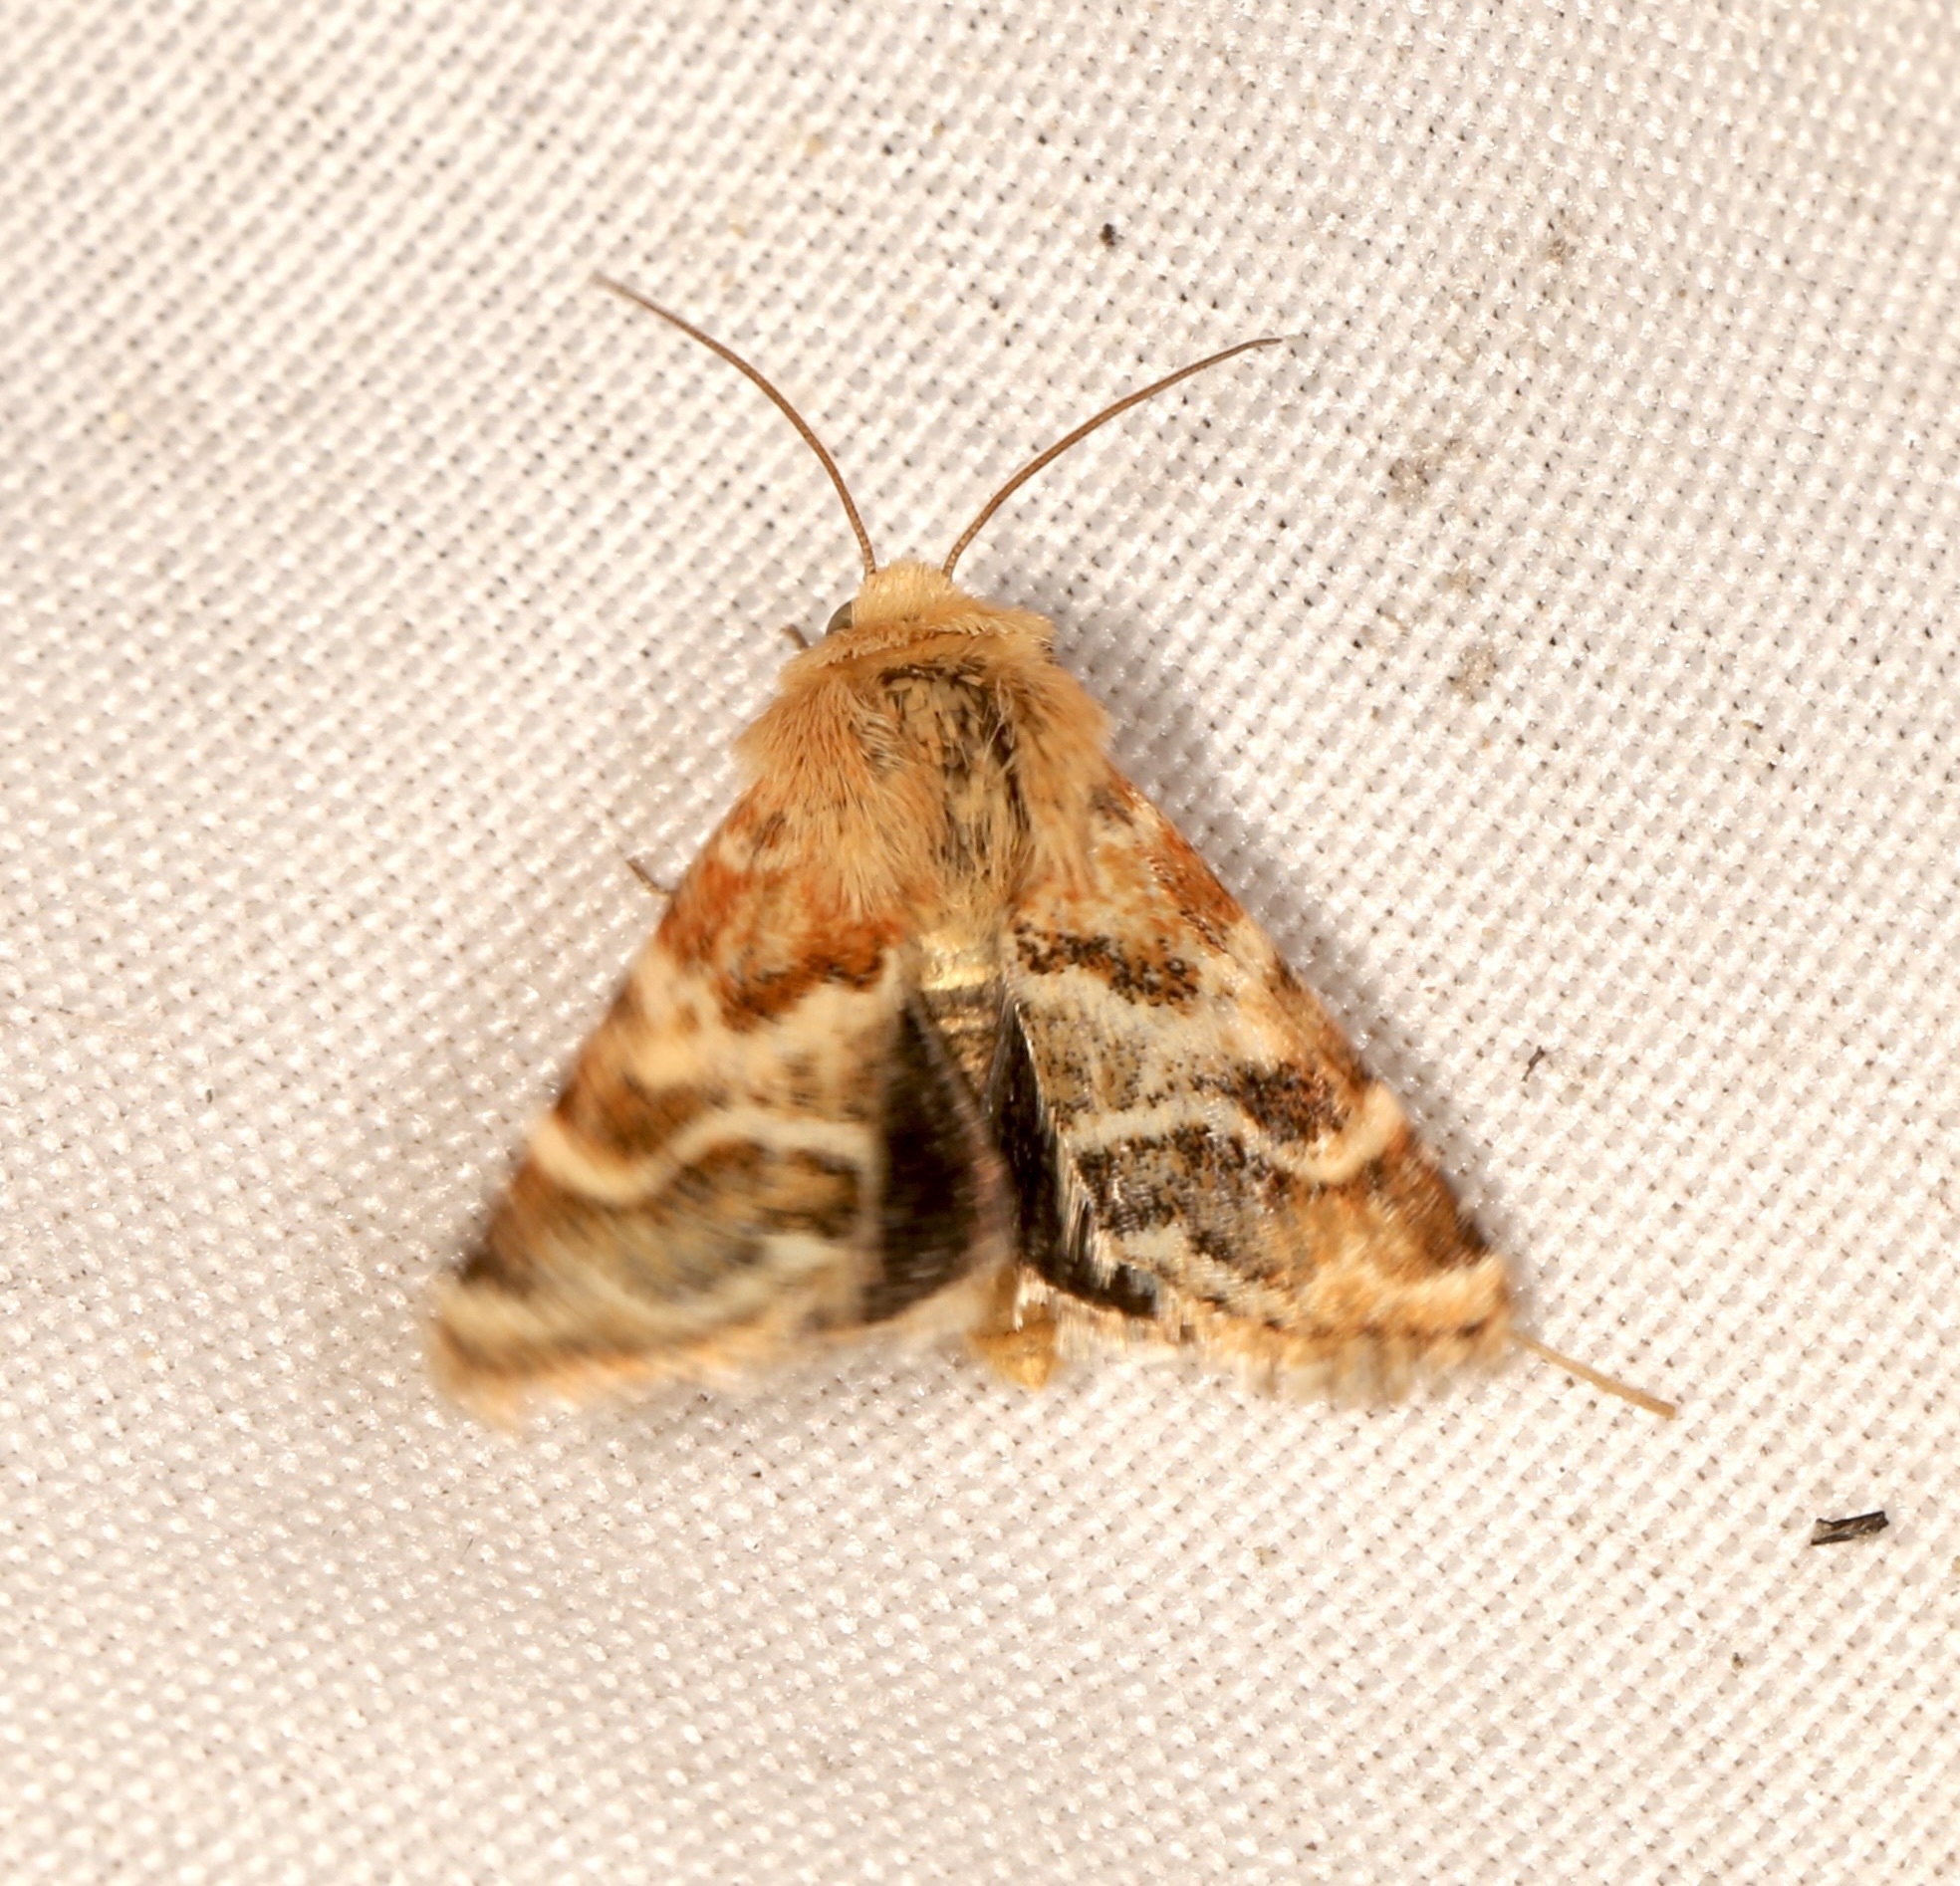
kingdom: Animalia
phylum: Arthropoda
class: Insecta
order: Lepidoptera
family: Noctuidae
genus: Schinia
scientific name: Schinia errans
